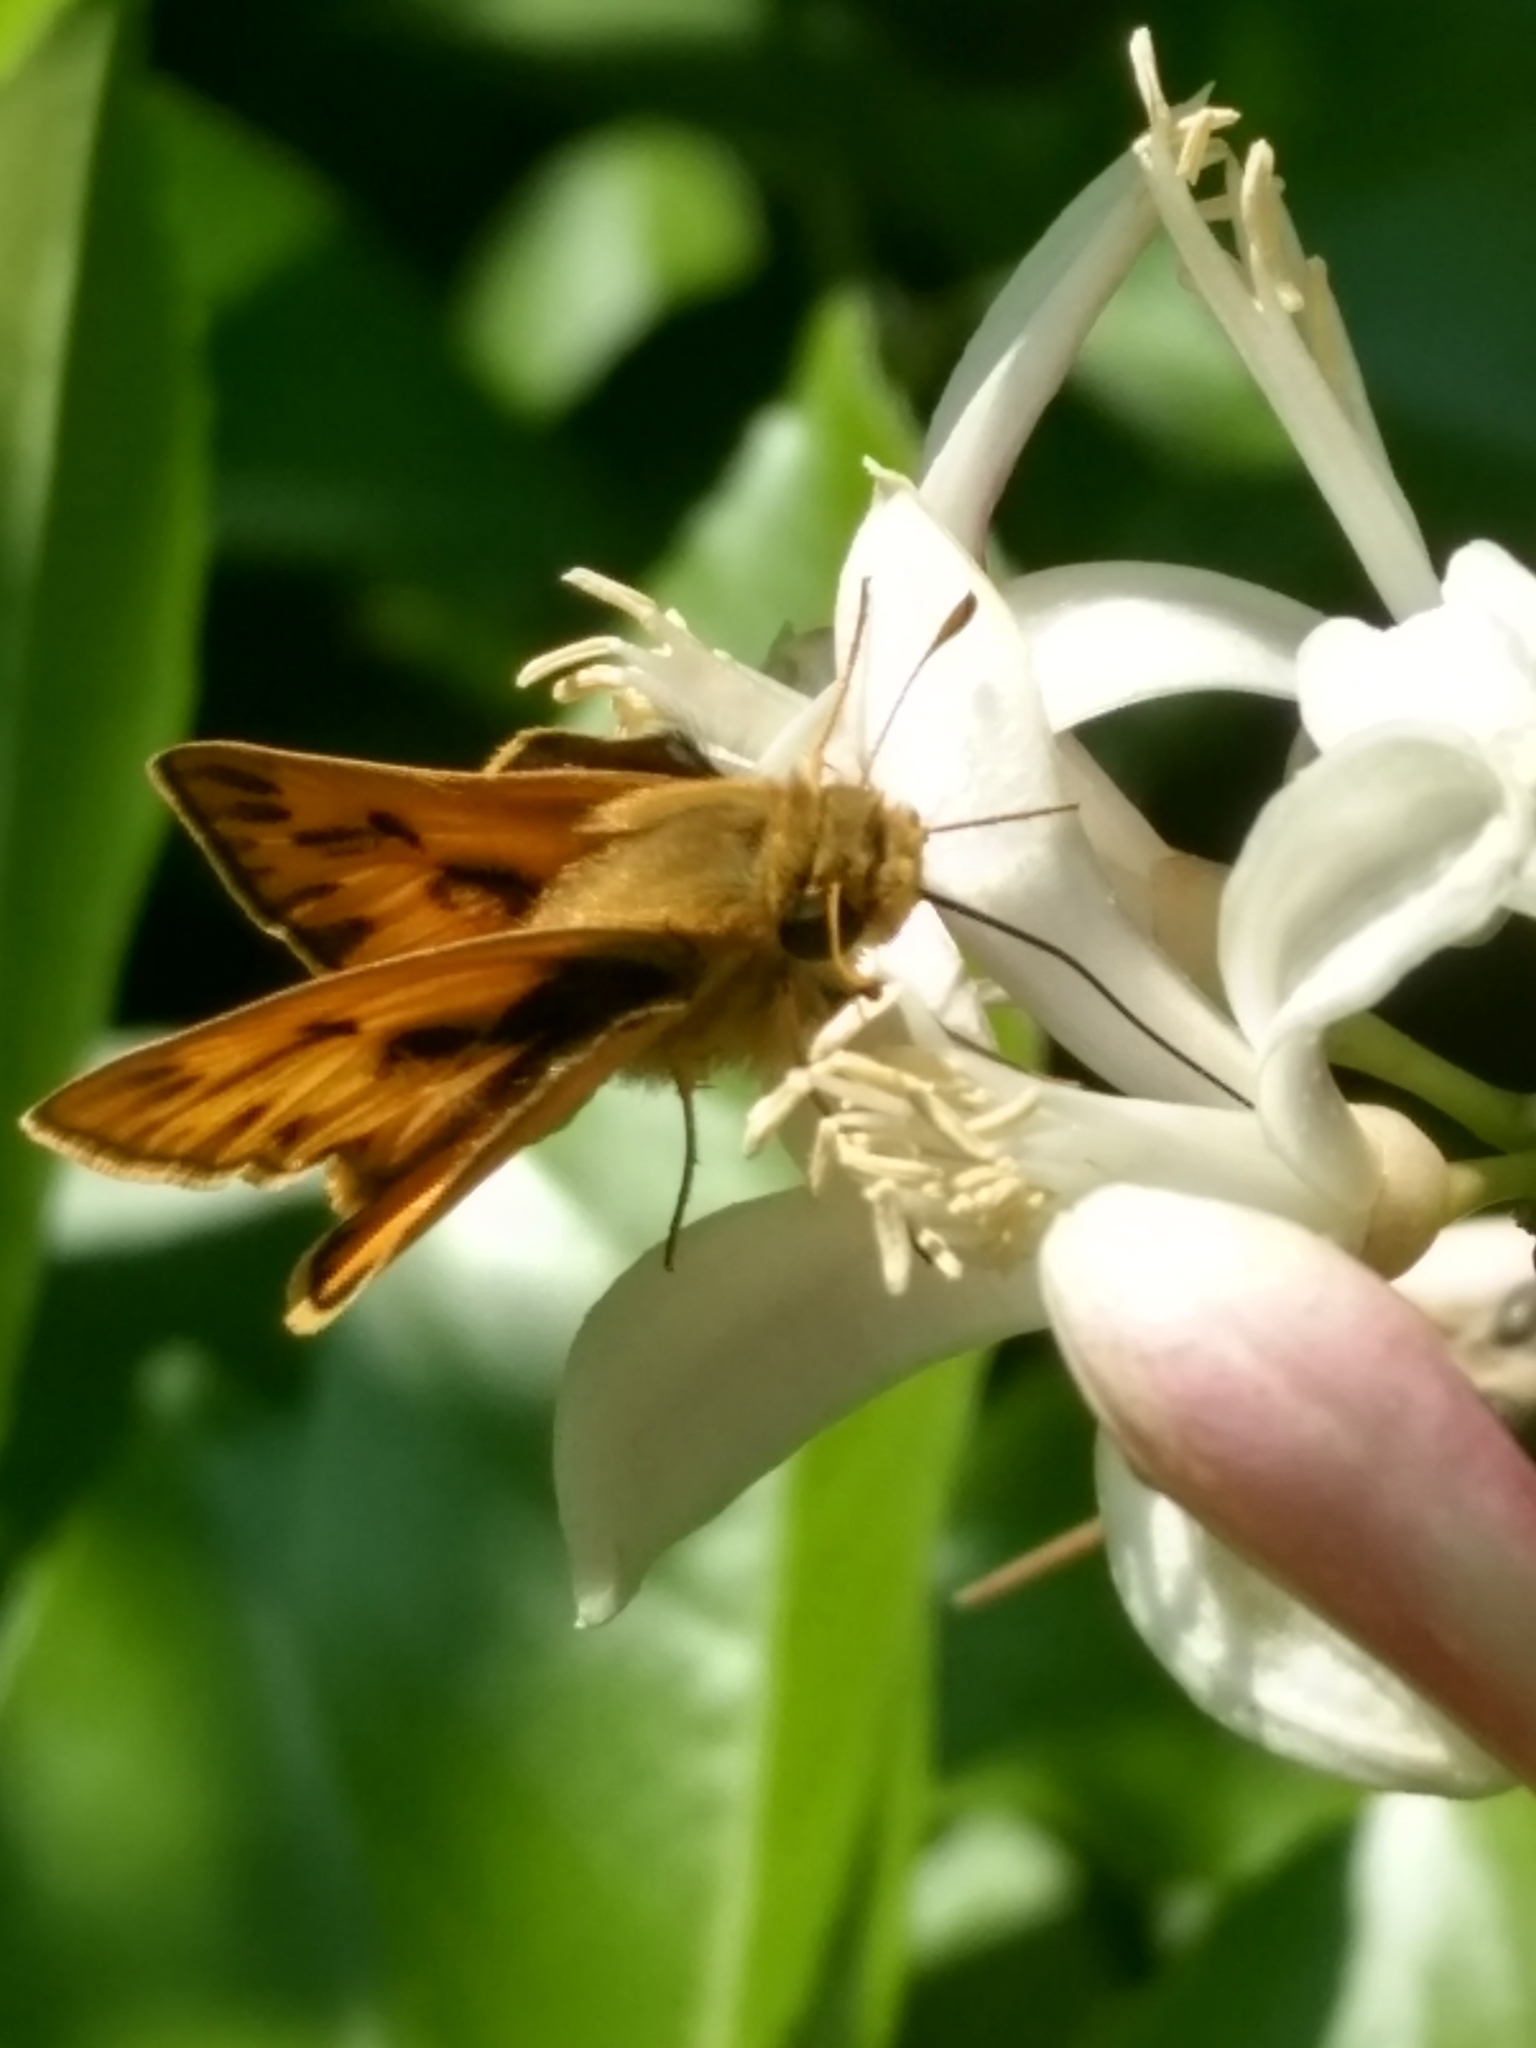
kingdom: Animalia
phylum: Arthropoda
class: Insecta
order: Lepidoptera
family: Hesperiidae
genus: Hylephila
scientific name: Hylephila phyleus
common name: Fiery skipper
